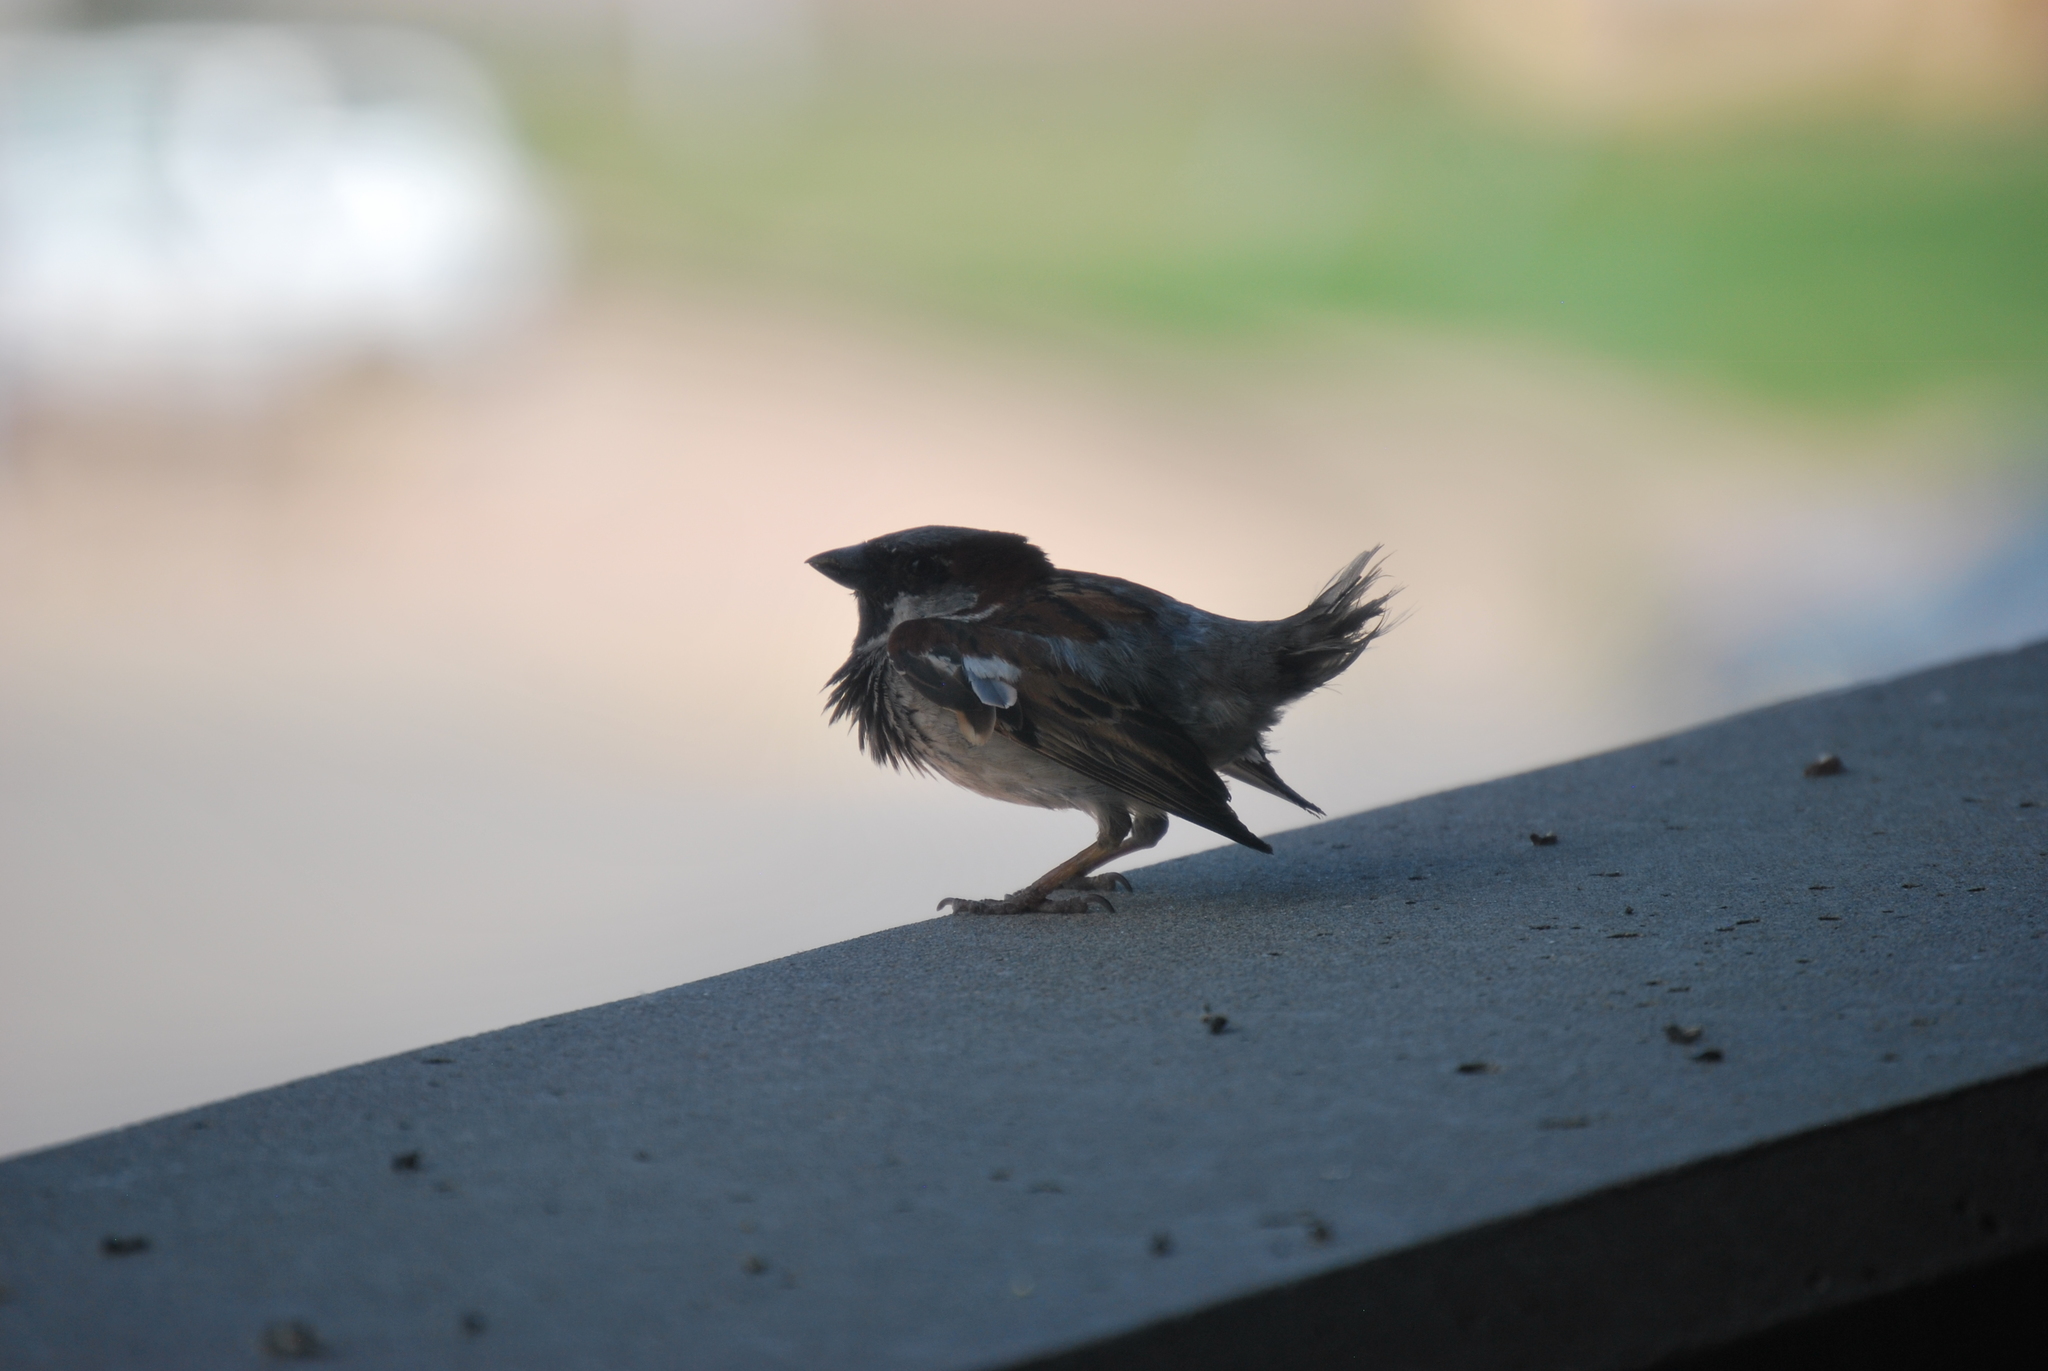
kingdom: Animalia
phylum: Chordata
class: Aves
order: Passeriformes
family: Passeridae
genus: Passer
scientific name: Passer domesticus
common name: House sparrow
